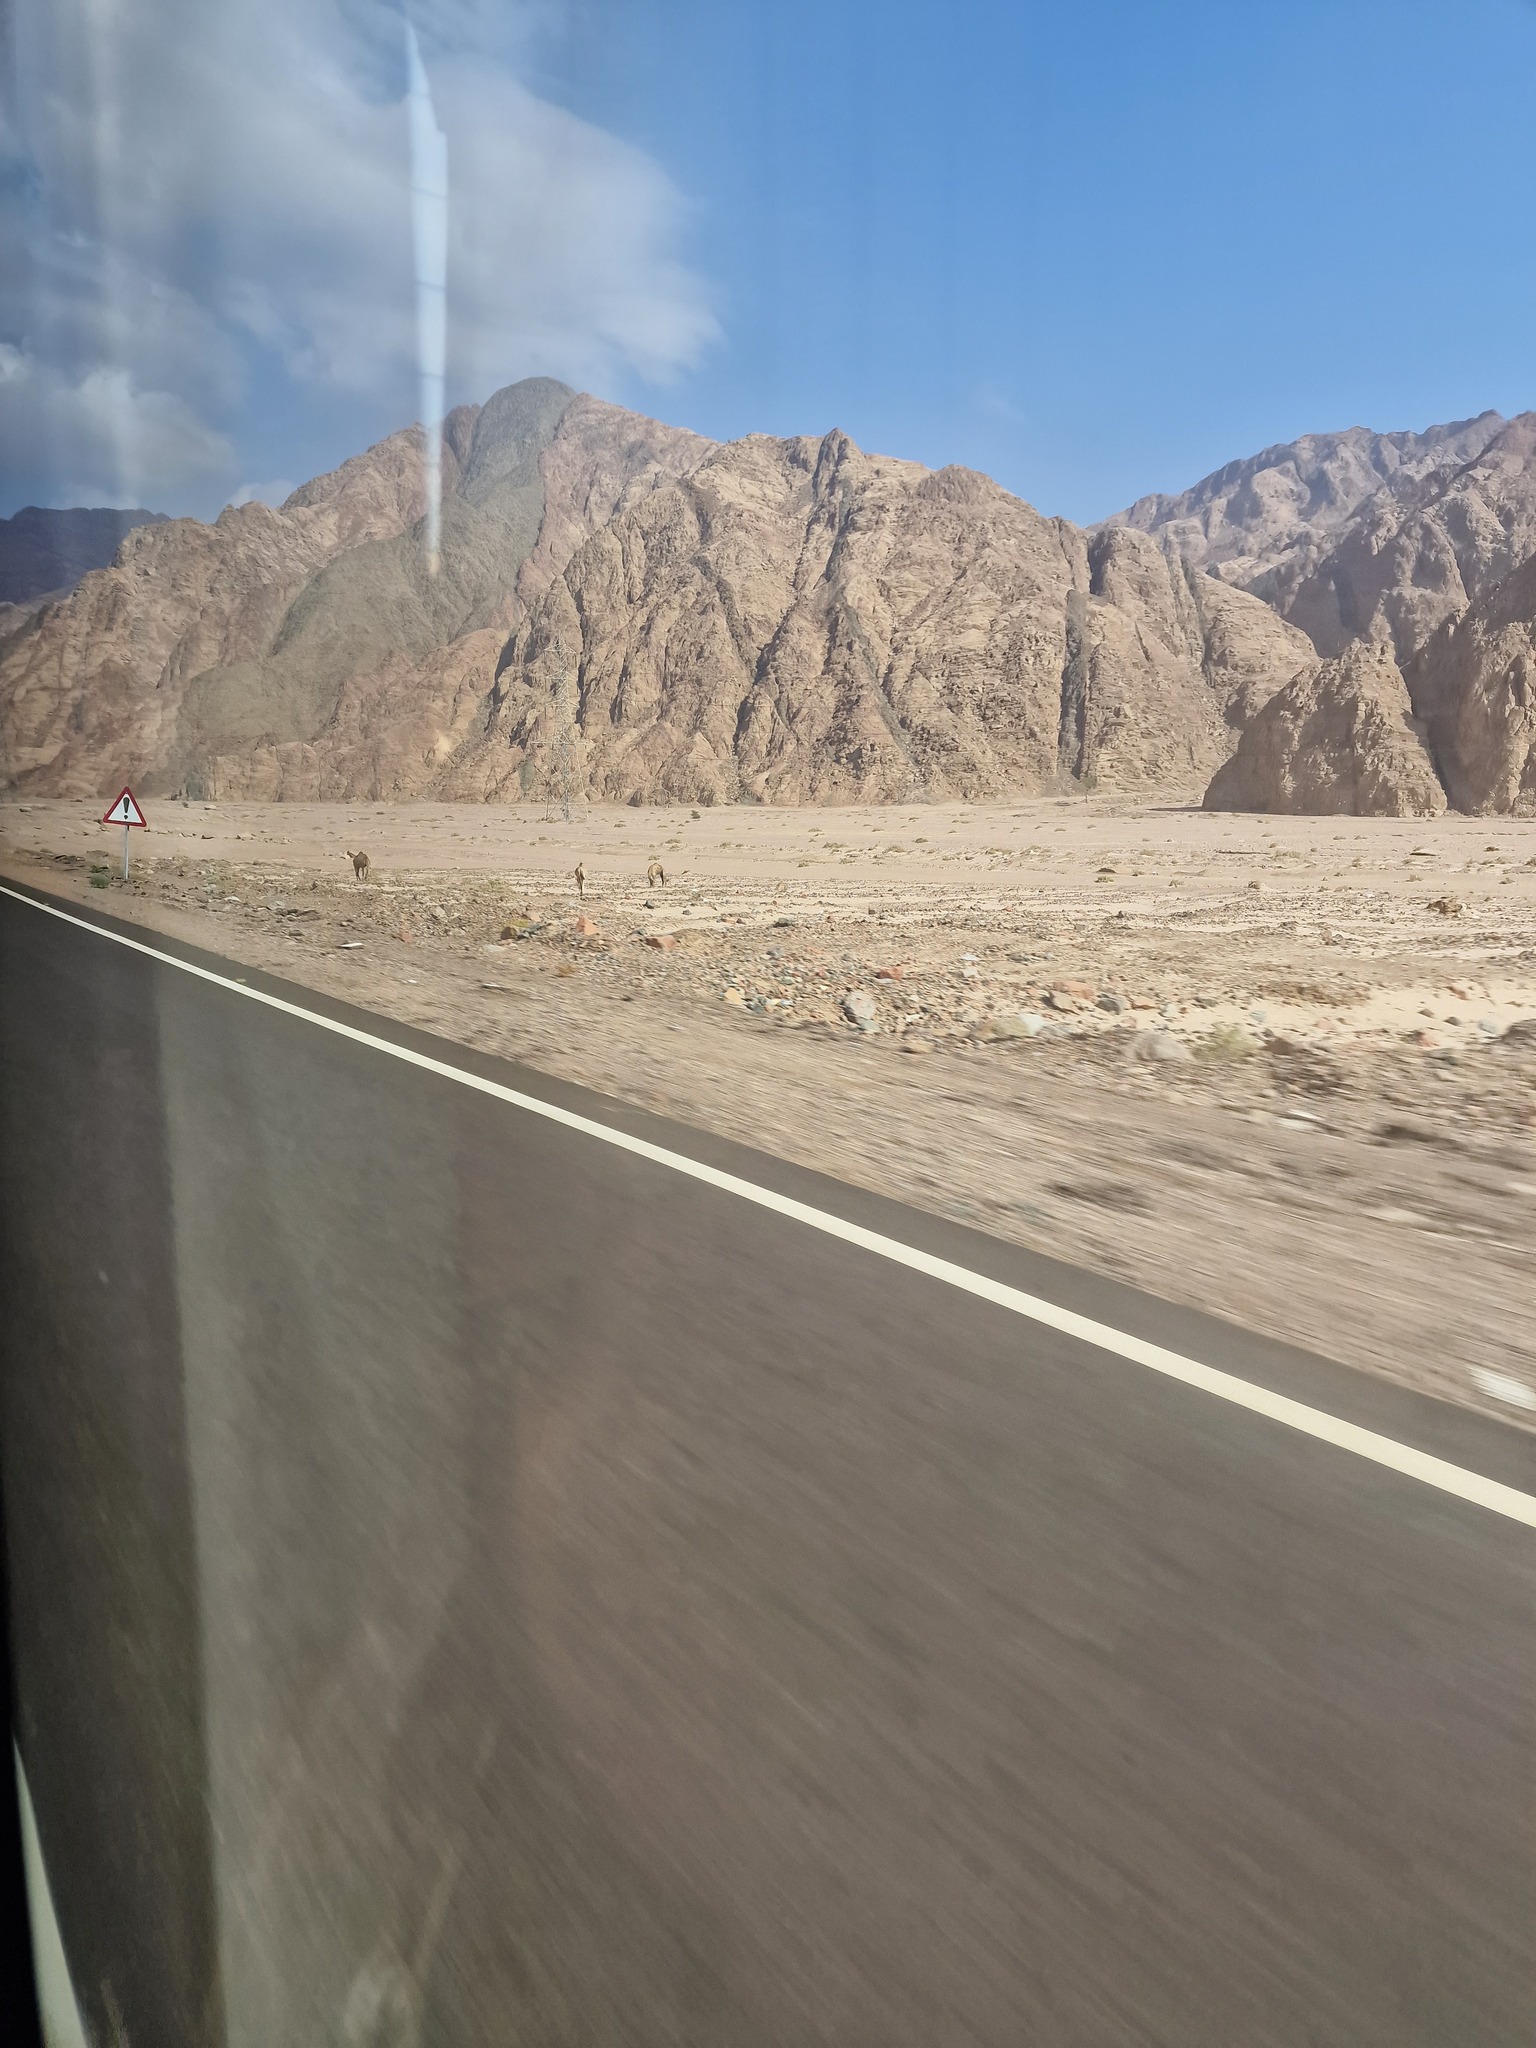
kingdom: Animalia
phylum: Chordata
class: Mammalia
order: Artiodactyla
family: Camelidae
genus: Camelus
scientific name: Camelus dromedarius
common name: One-humped camel
